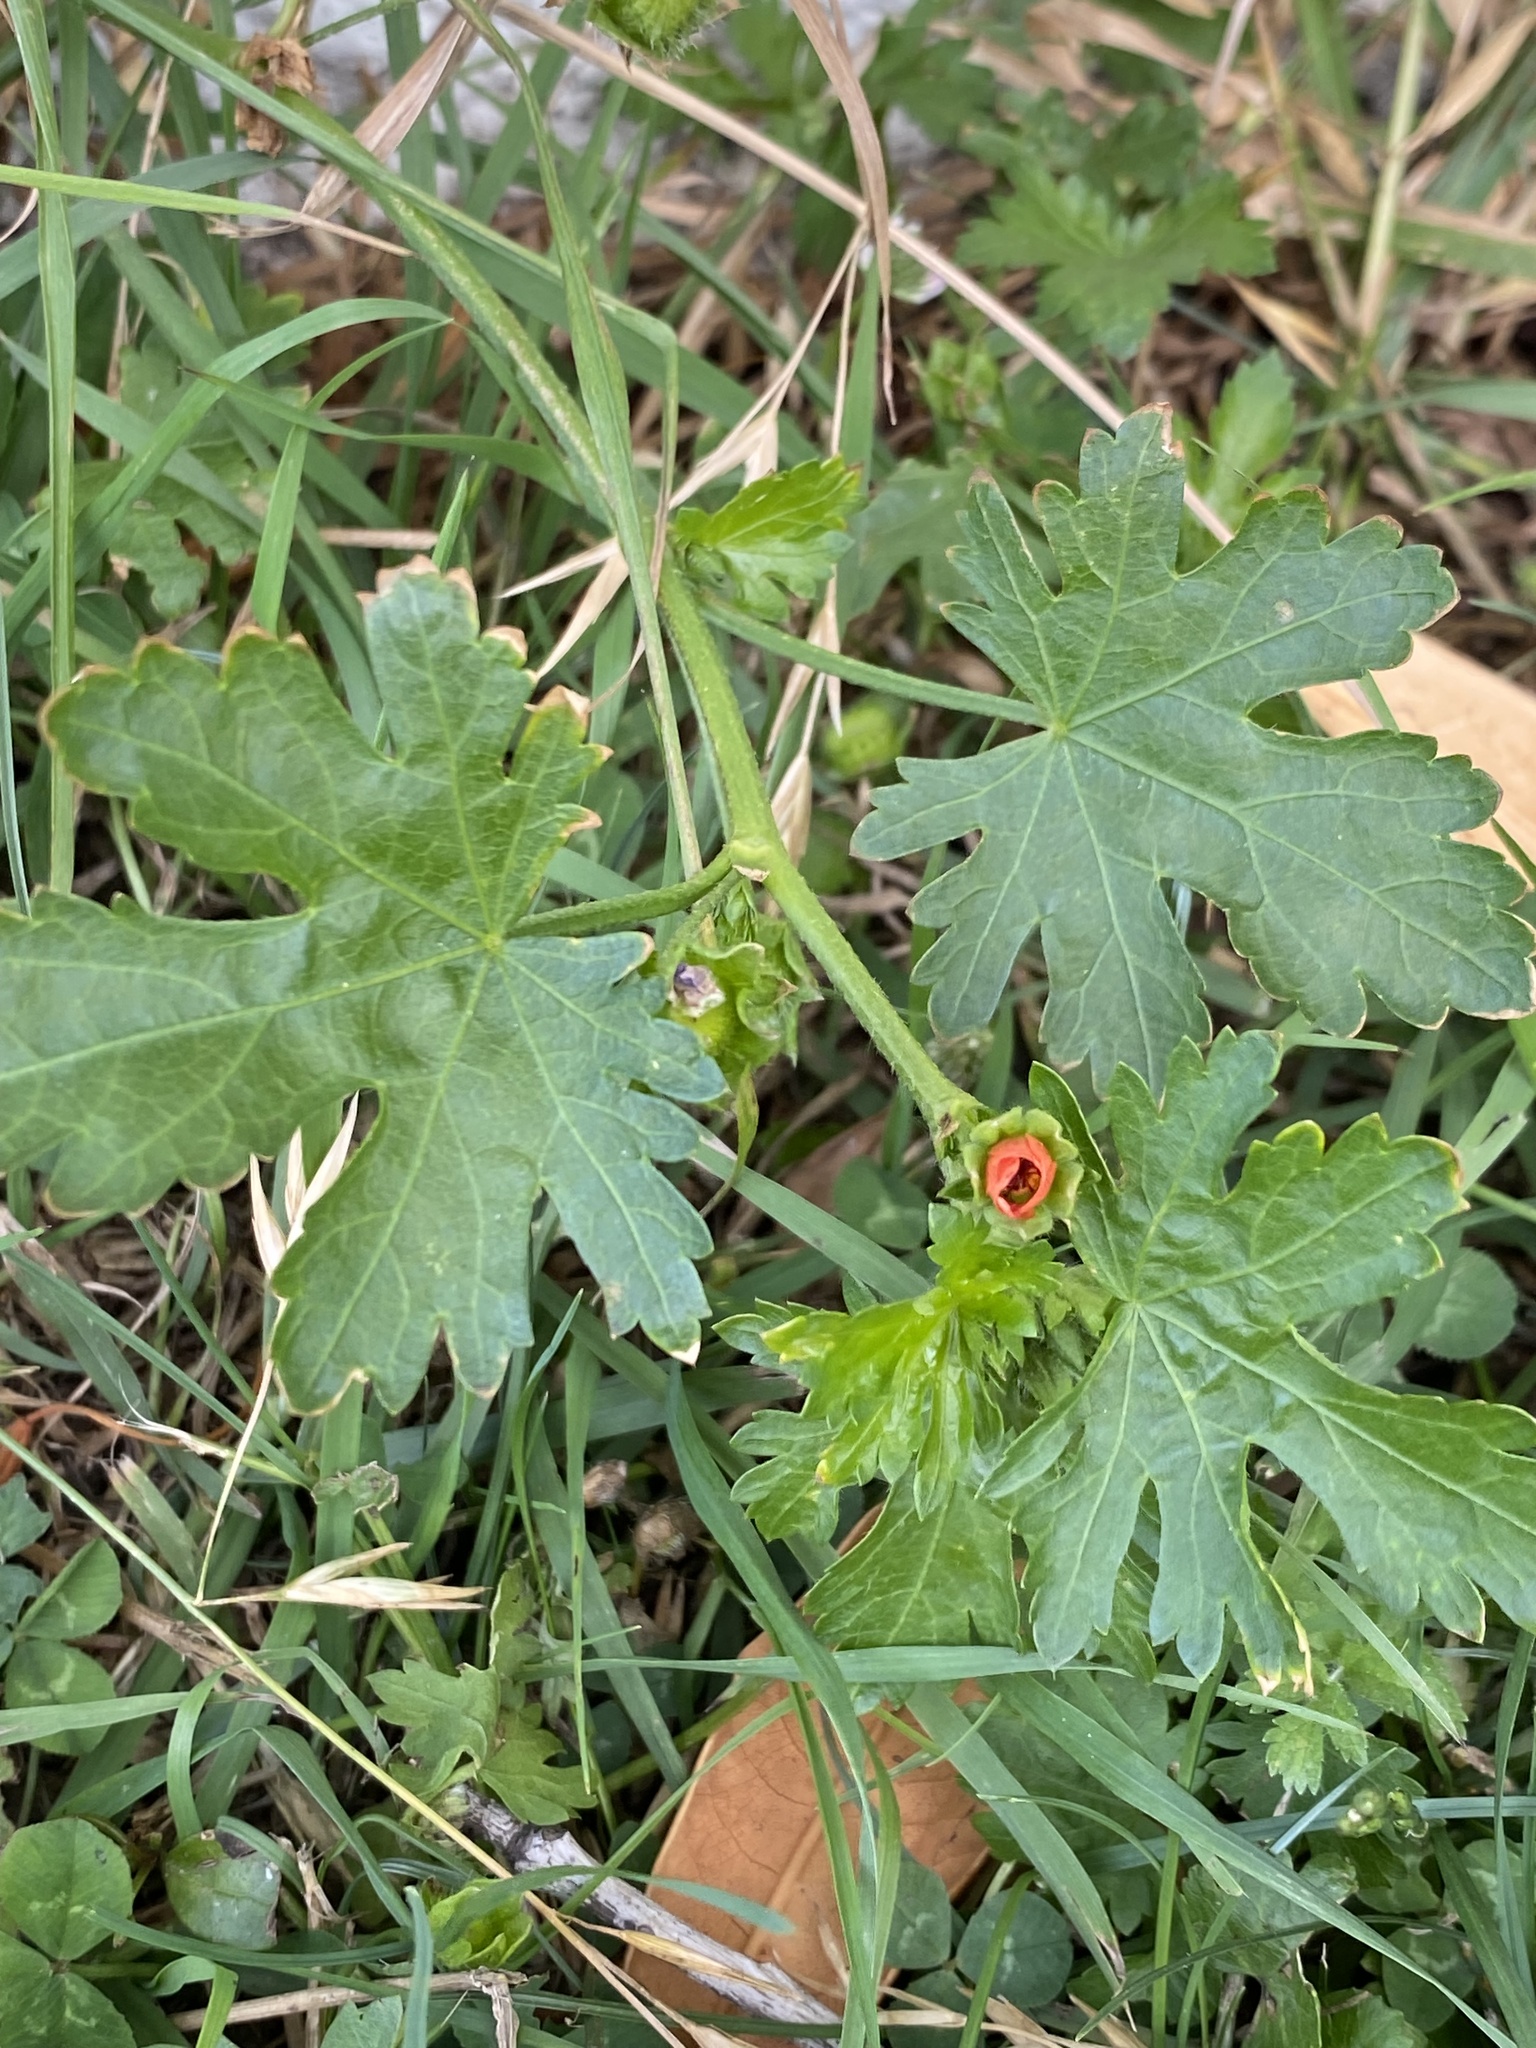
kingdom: Plantae
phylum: Tracheophyta
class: Magnoliopsida
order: Malvales
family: Malvaceae
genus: Modiola
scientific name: Modiola caroliniana
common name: Carolina bristlemallow
